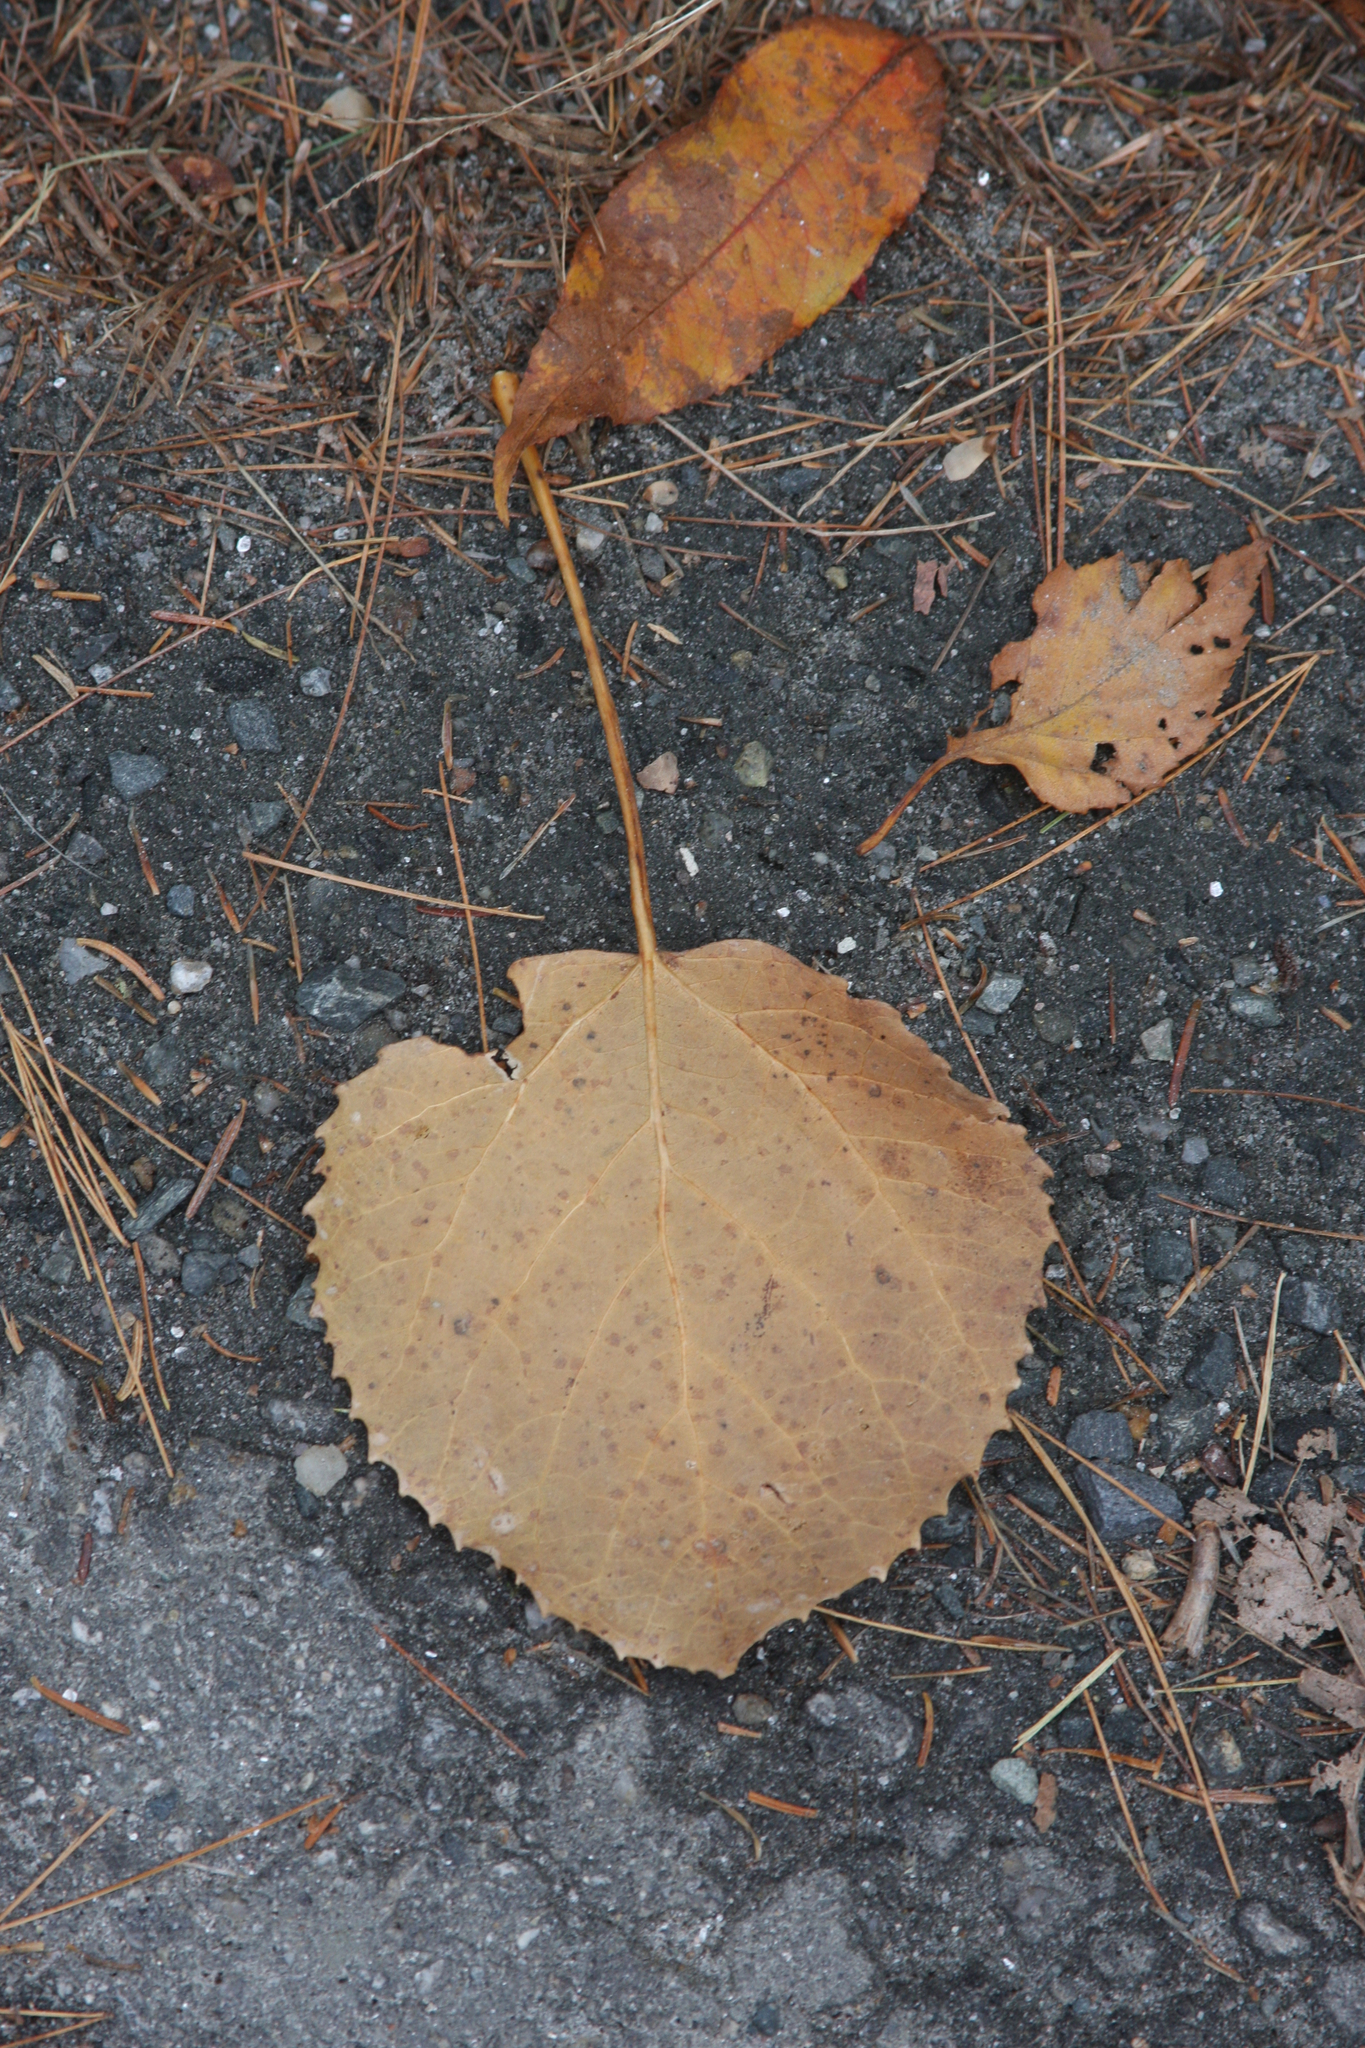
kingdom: Plantae
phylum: Tracheophyta
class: Magnoliopsida
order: Malpighiales
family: Salicaceae
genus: Populus
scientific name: Populus grandidentata
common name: Bigtooth aspen
